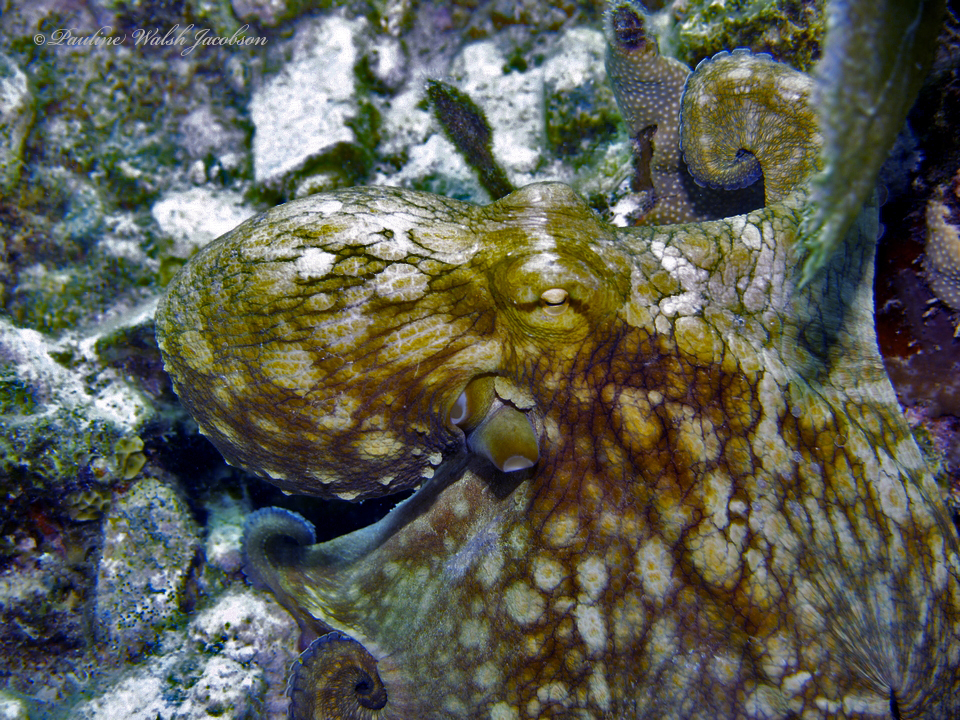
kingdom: Animalia
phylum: Mollusca
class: Cephalopoda
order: Octopoda
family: Octopodidae
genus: Octopus
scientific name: Octopus insularis
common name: Brazil reef octopus
